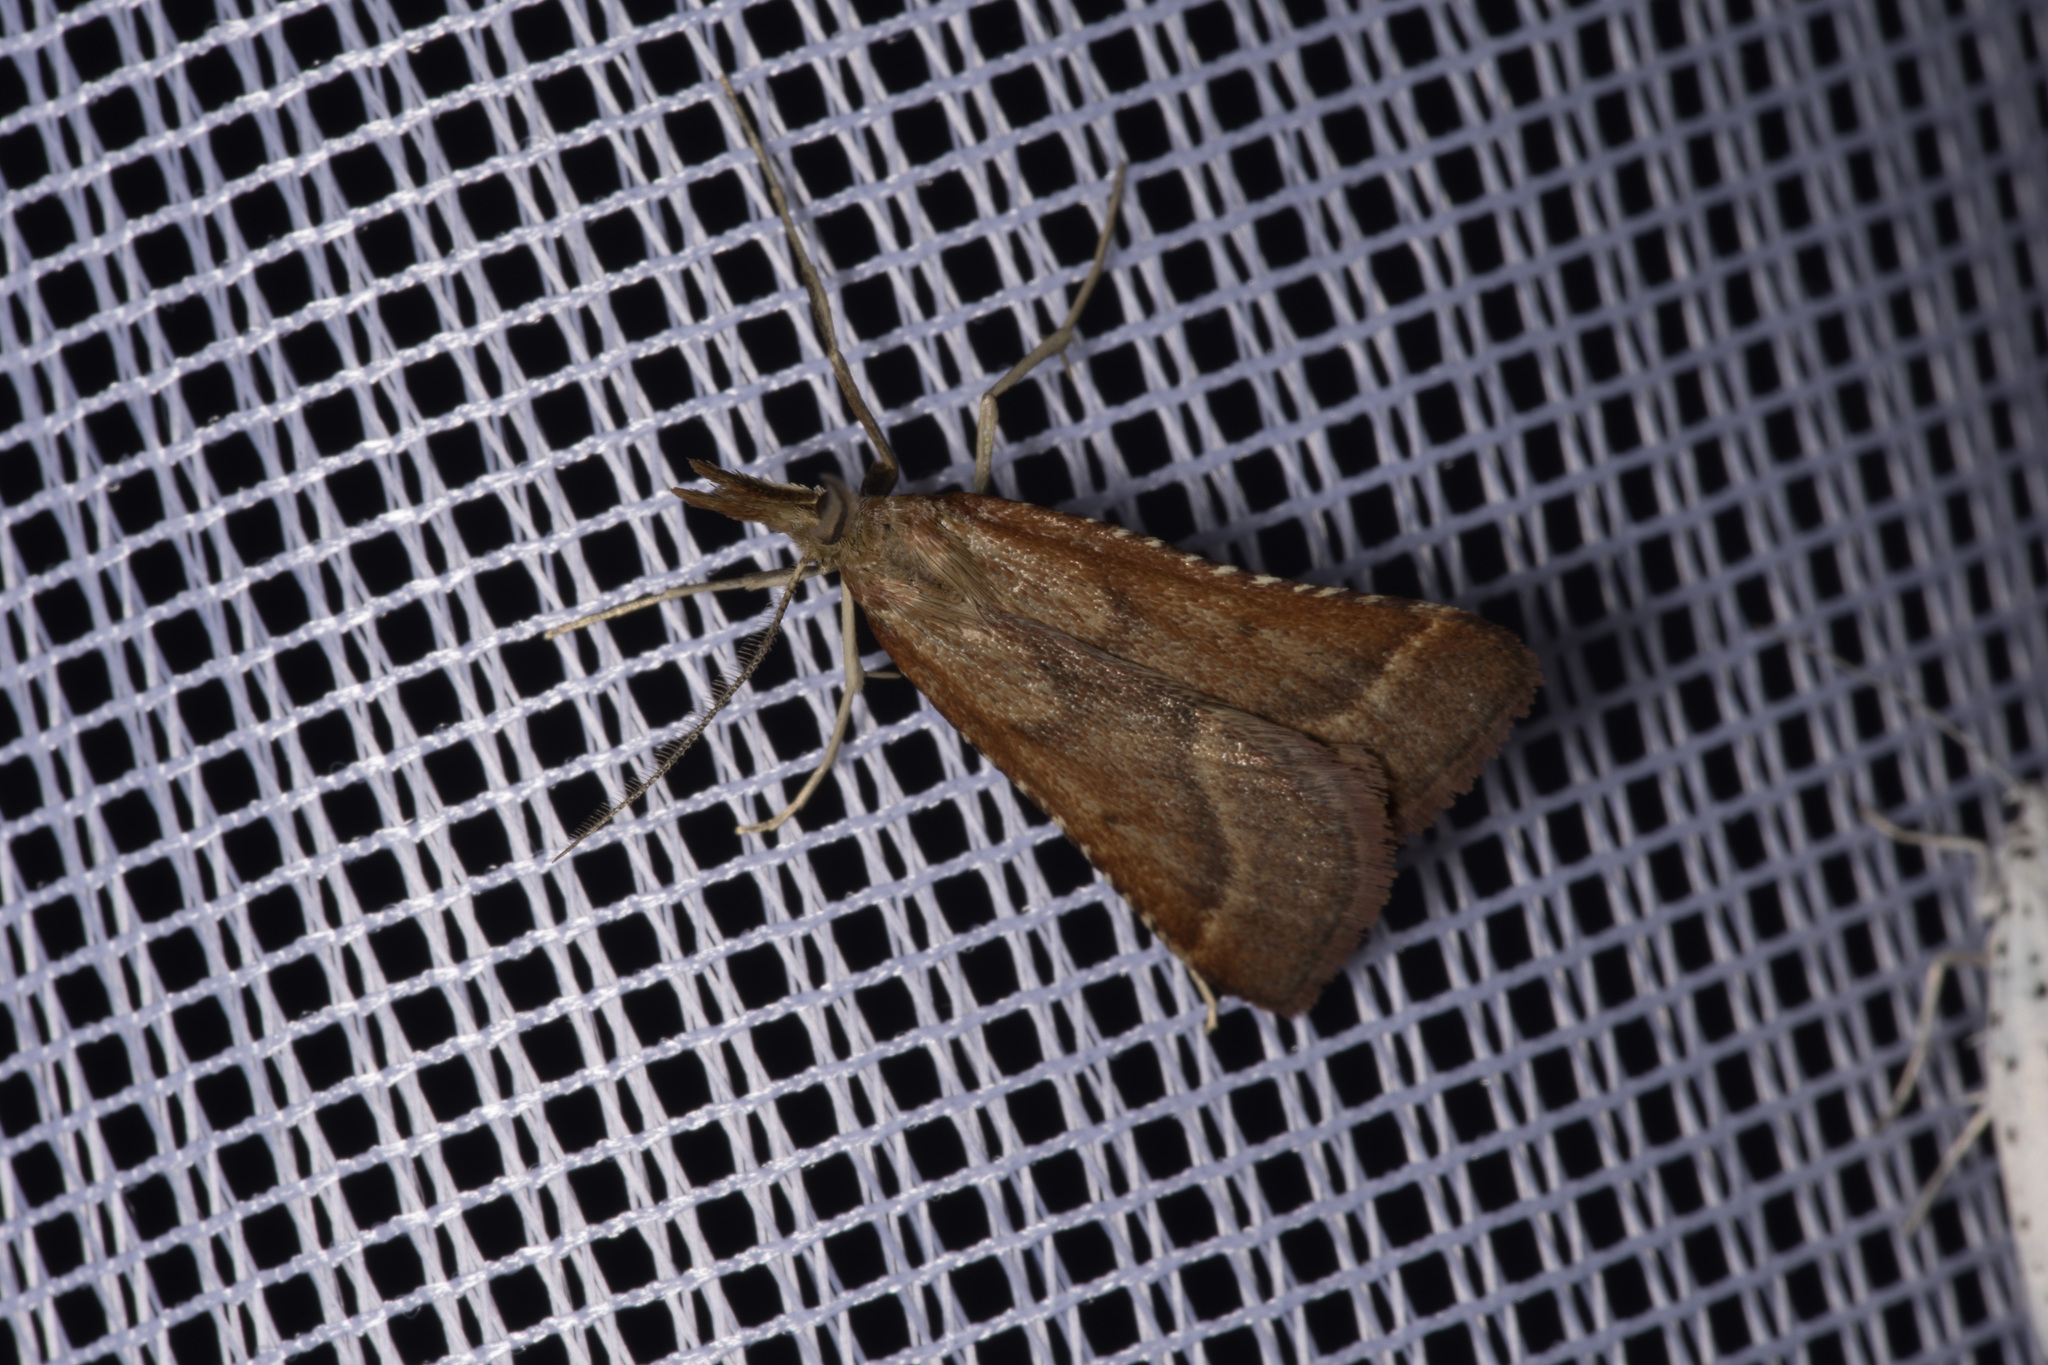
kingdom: Animalia
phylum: Arthropoda
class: Insecta
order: Lepidoptera
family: Pyralidae
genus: Synaphe
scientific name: Synaphe punctalis
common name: Long-legged tabby
